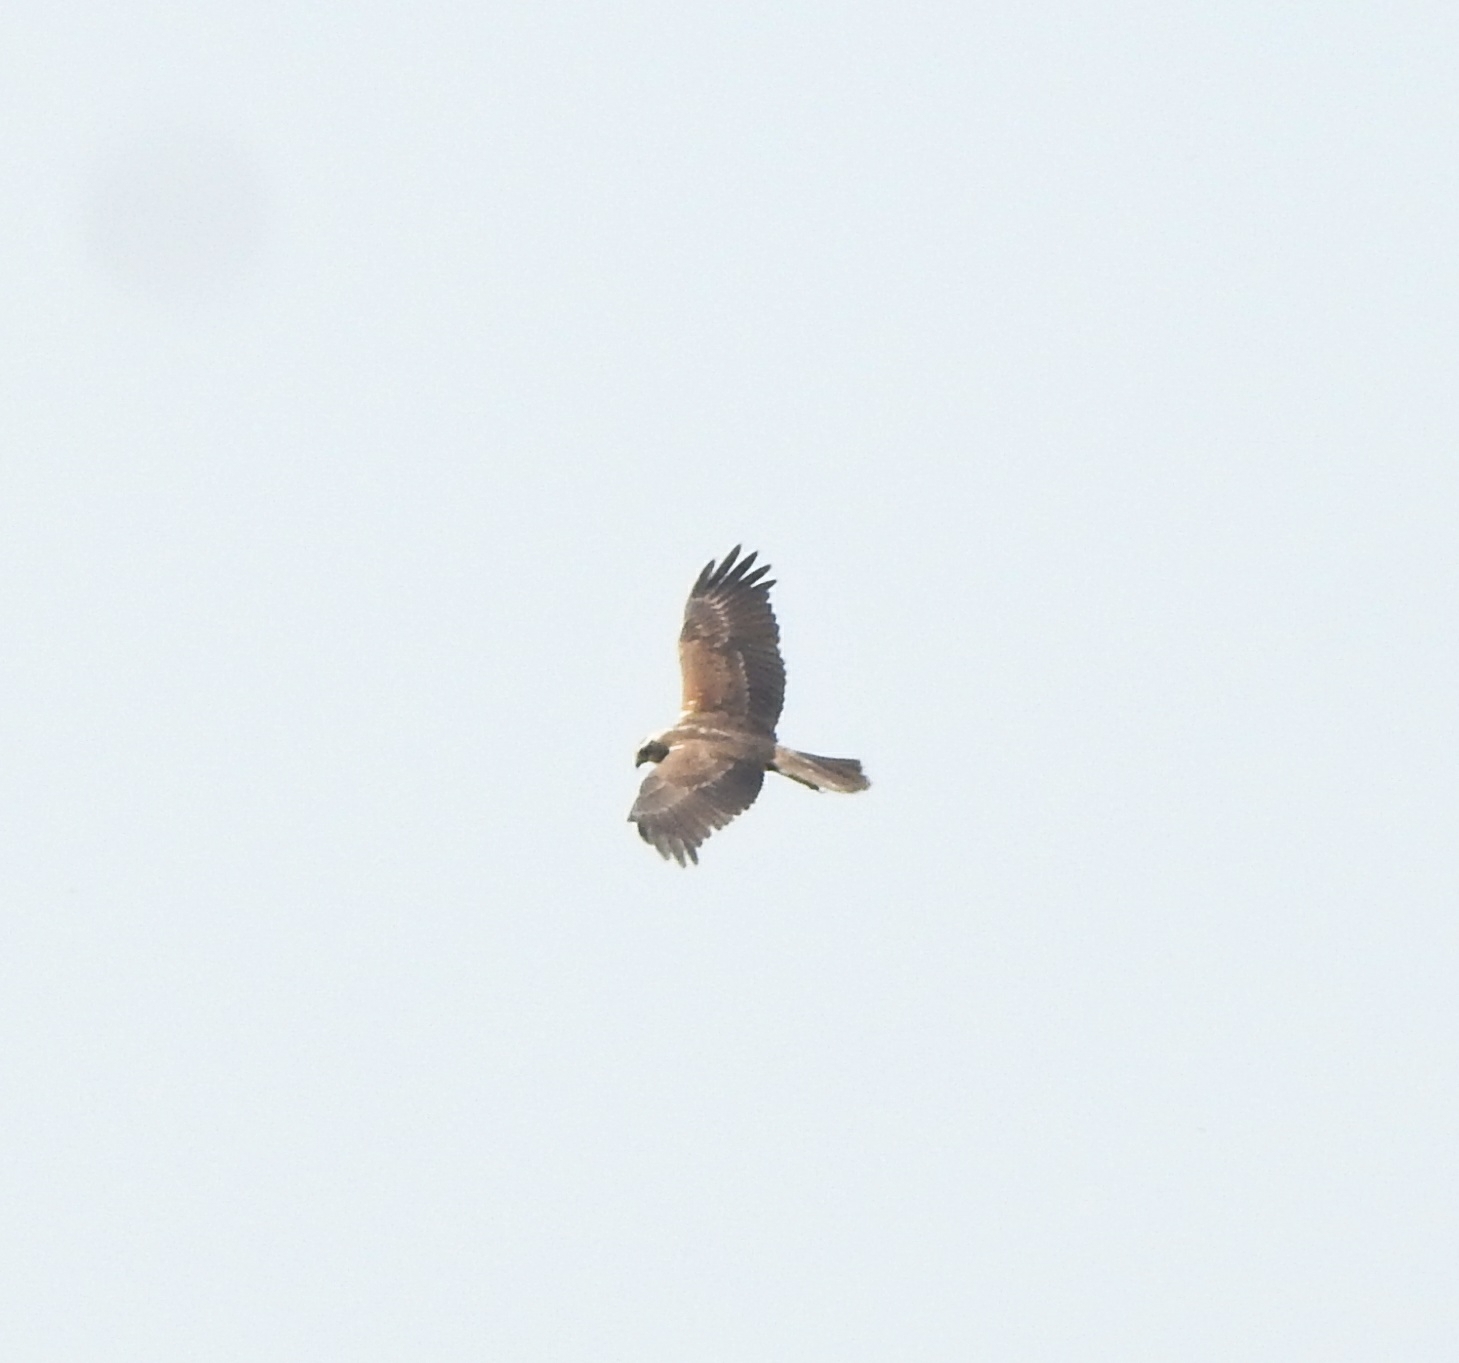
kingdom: Animalia
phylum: Chordata
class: Aves
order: Accipitriformes
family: Accipitridae
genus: Circus
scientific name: Circus aeruginosus
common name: Western marsh harrier
